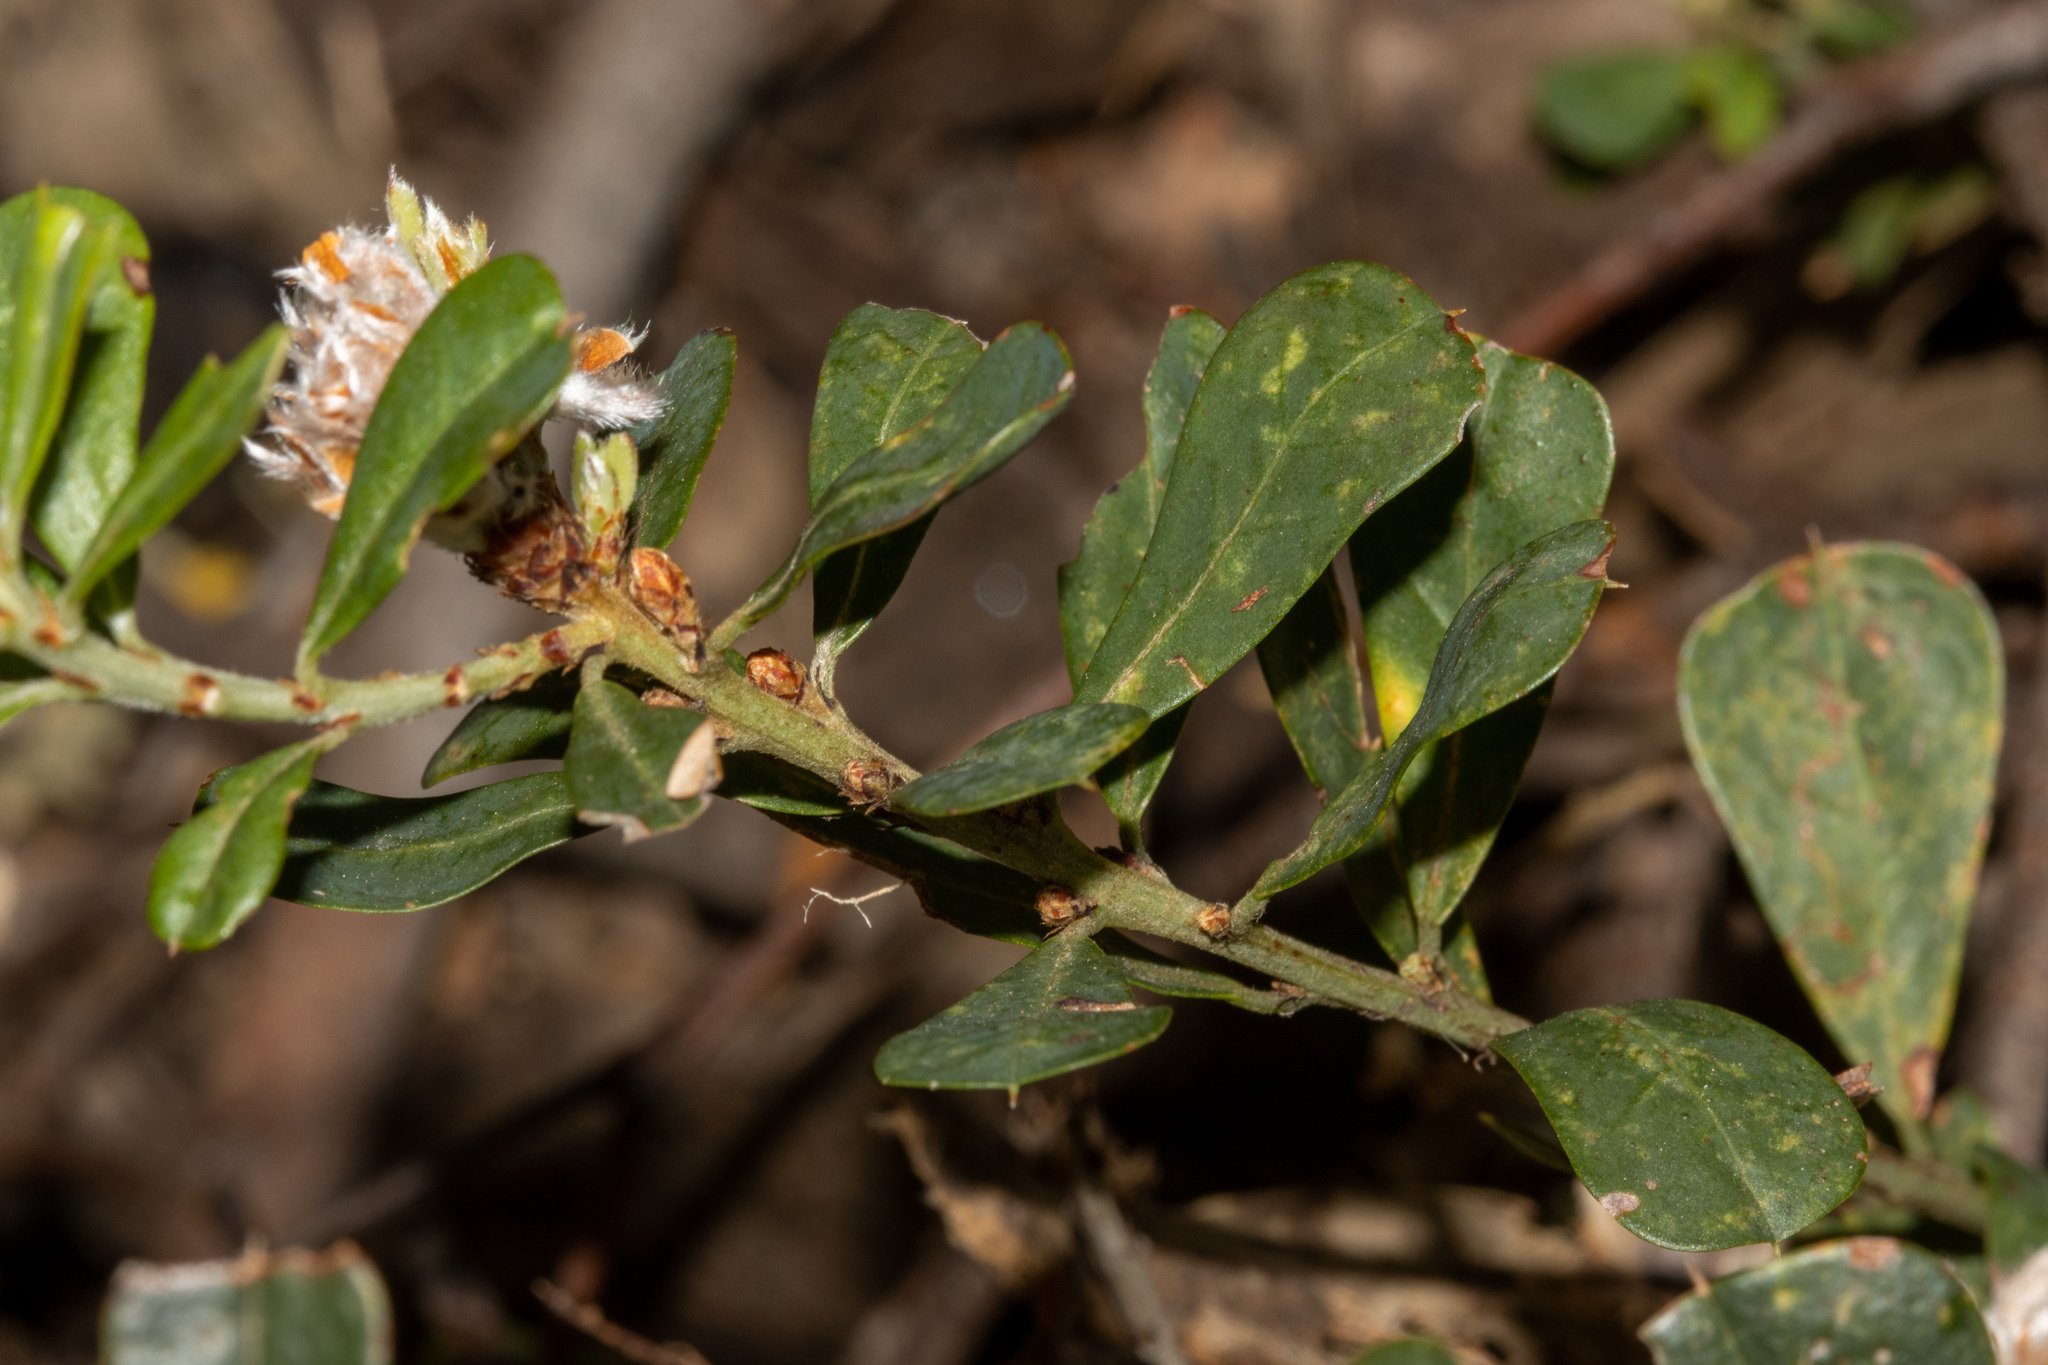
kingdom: Plantae
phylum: Tracheophyta
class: Magnoliopsida
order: Fabales
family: Fabaceae
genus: Pultenaea
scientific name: Pultenaea daphnoides
